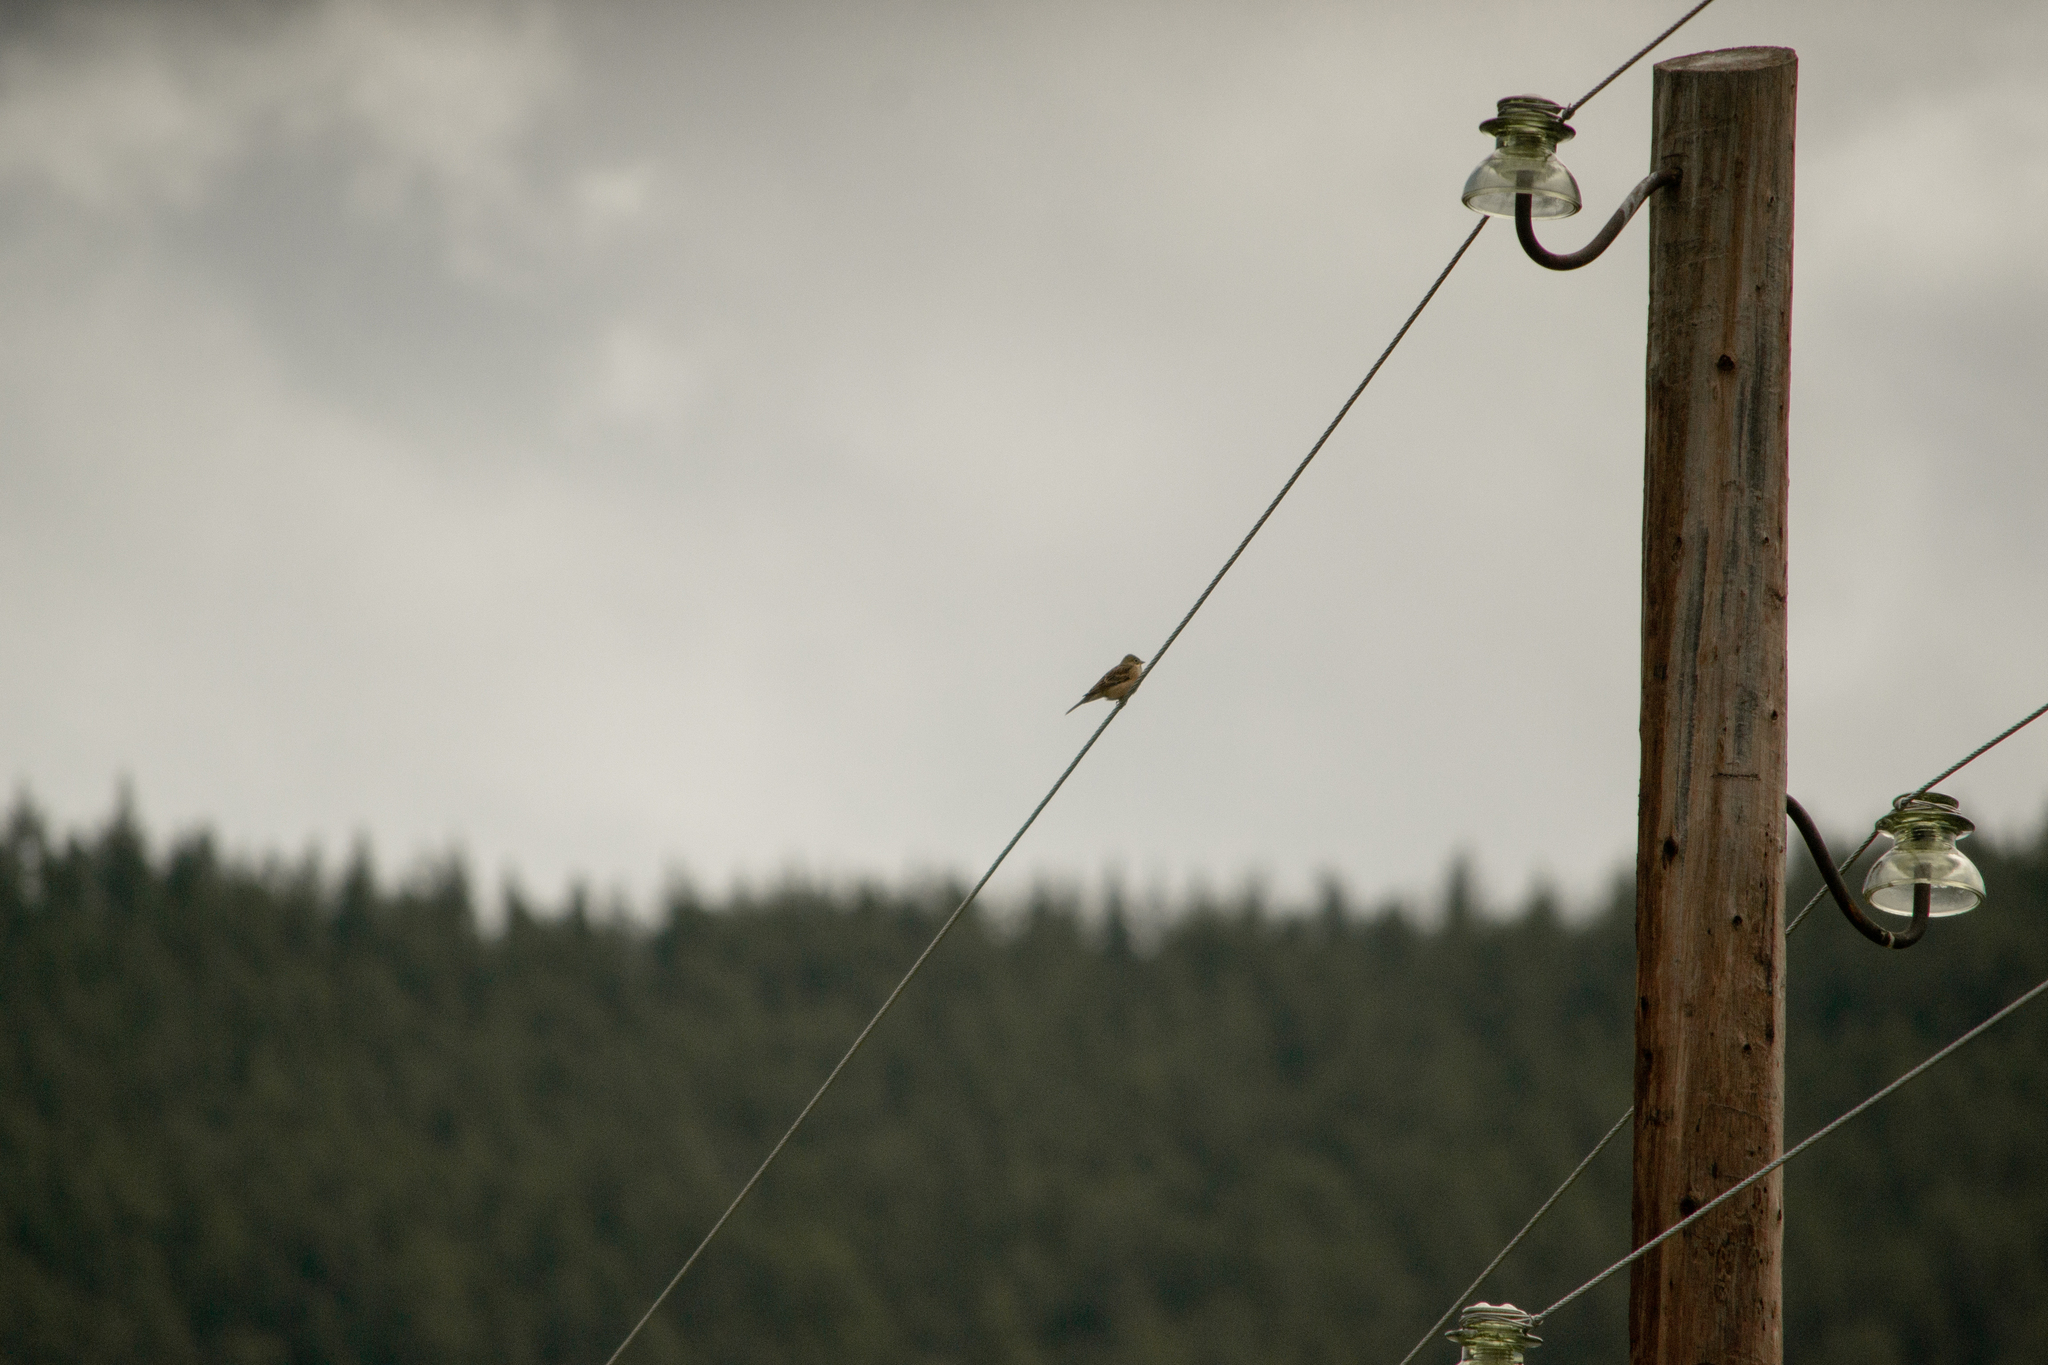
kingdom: Animalia
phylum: Chordata
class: Aves
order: Passeriformes
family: Emberizidae
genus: Emberiza
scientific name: Emberiza hortulana
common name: Ortolan bunting
